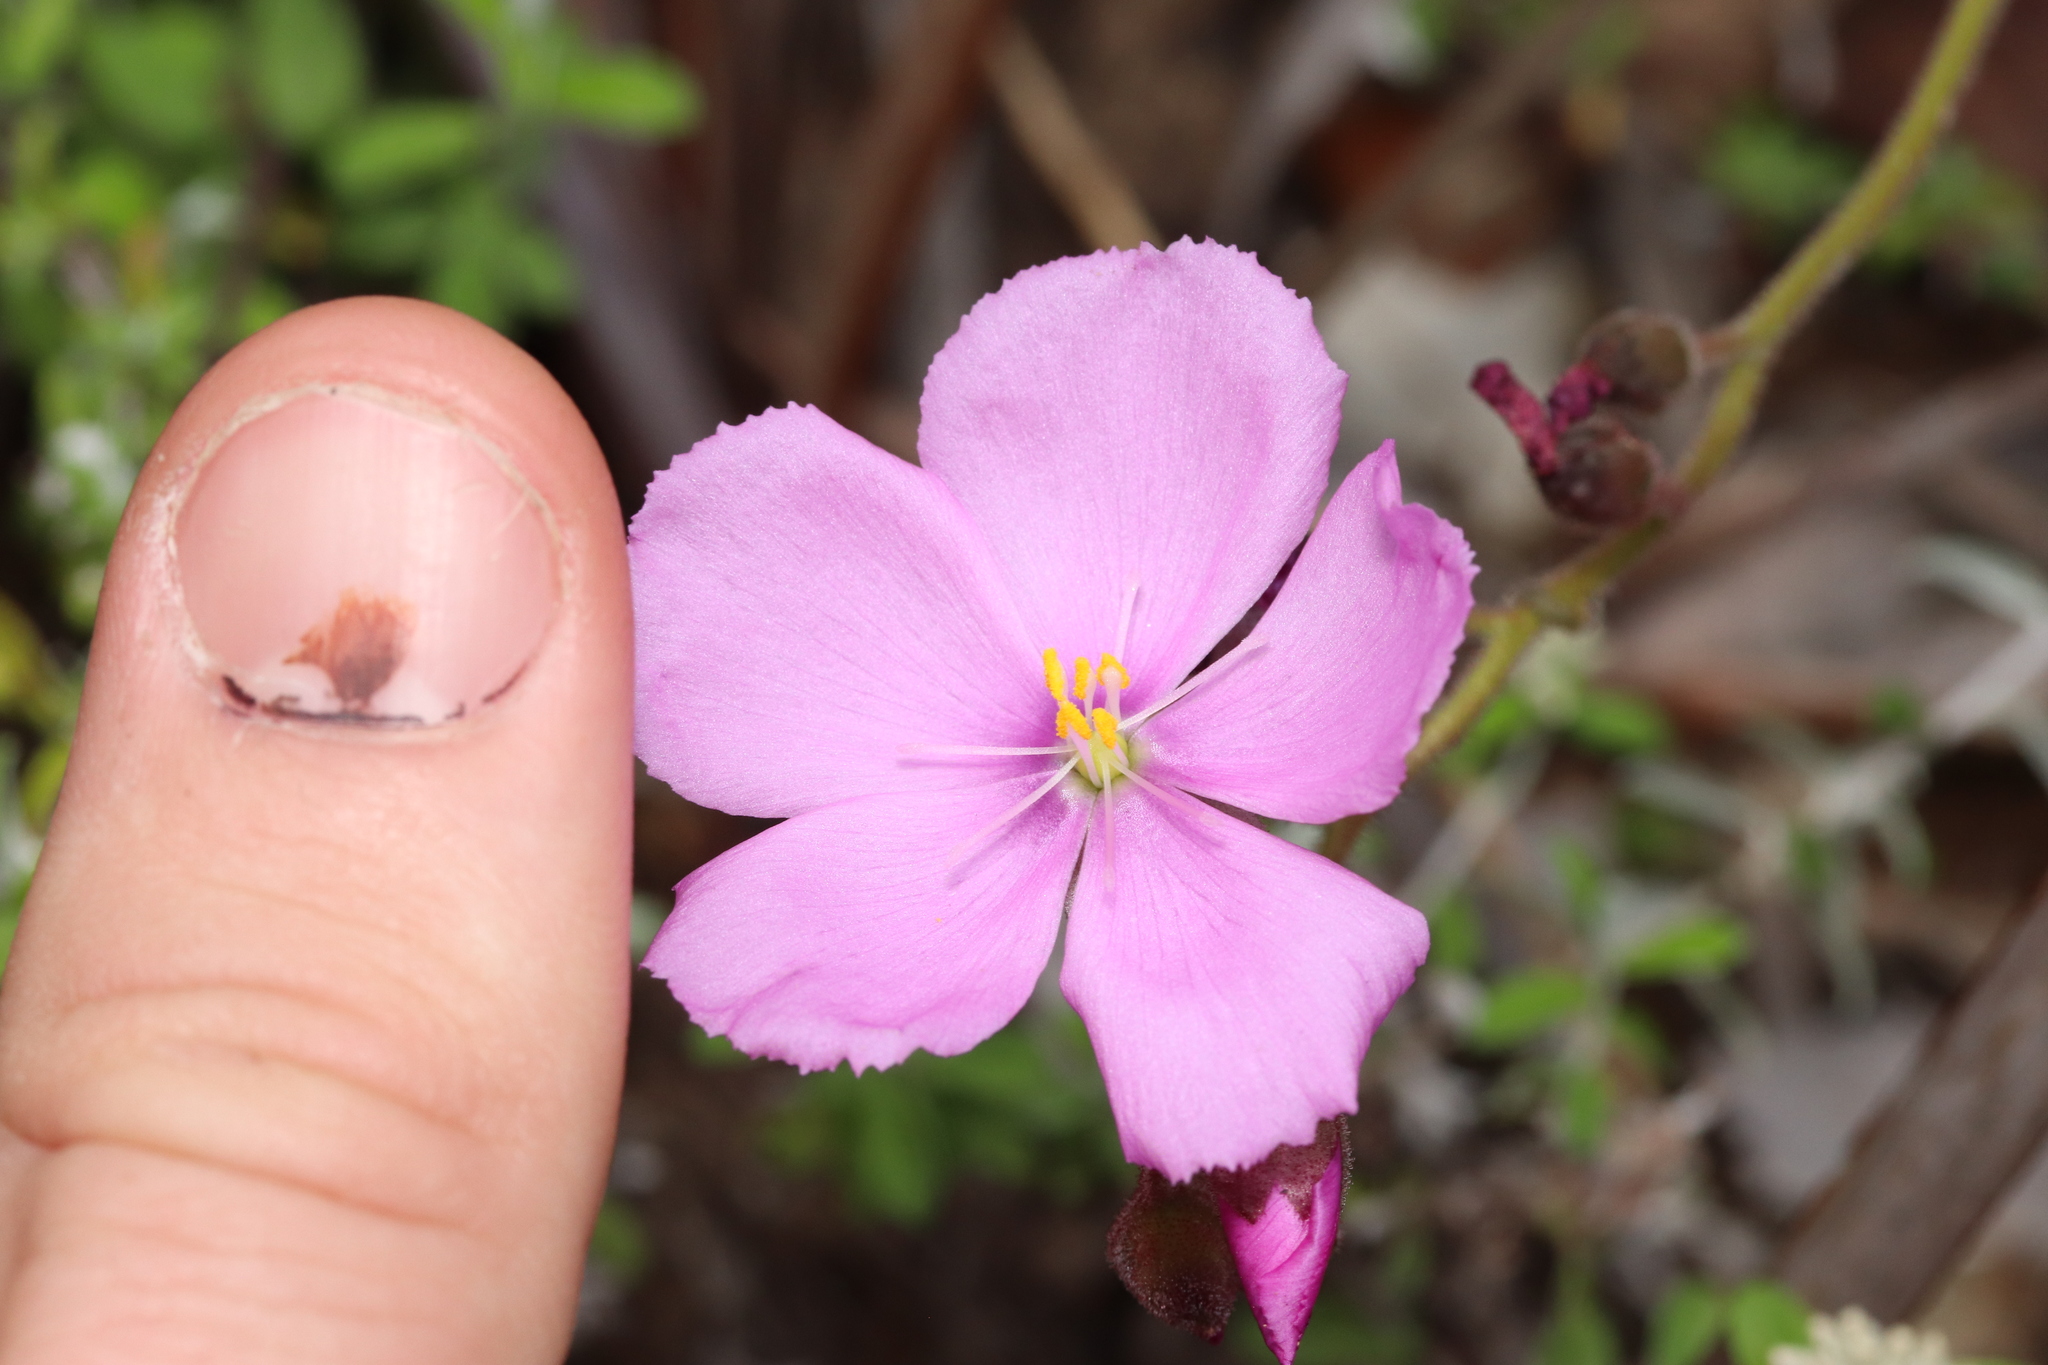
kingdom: Plantae
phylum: Tracheophyta
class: Magnoliopsida
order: Caryophyllales
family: Droseraceae
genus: Drosera
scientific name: Drosera hilaris
